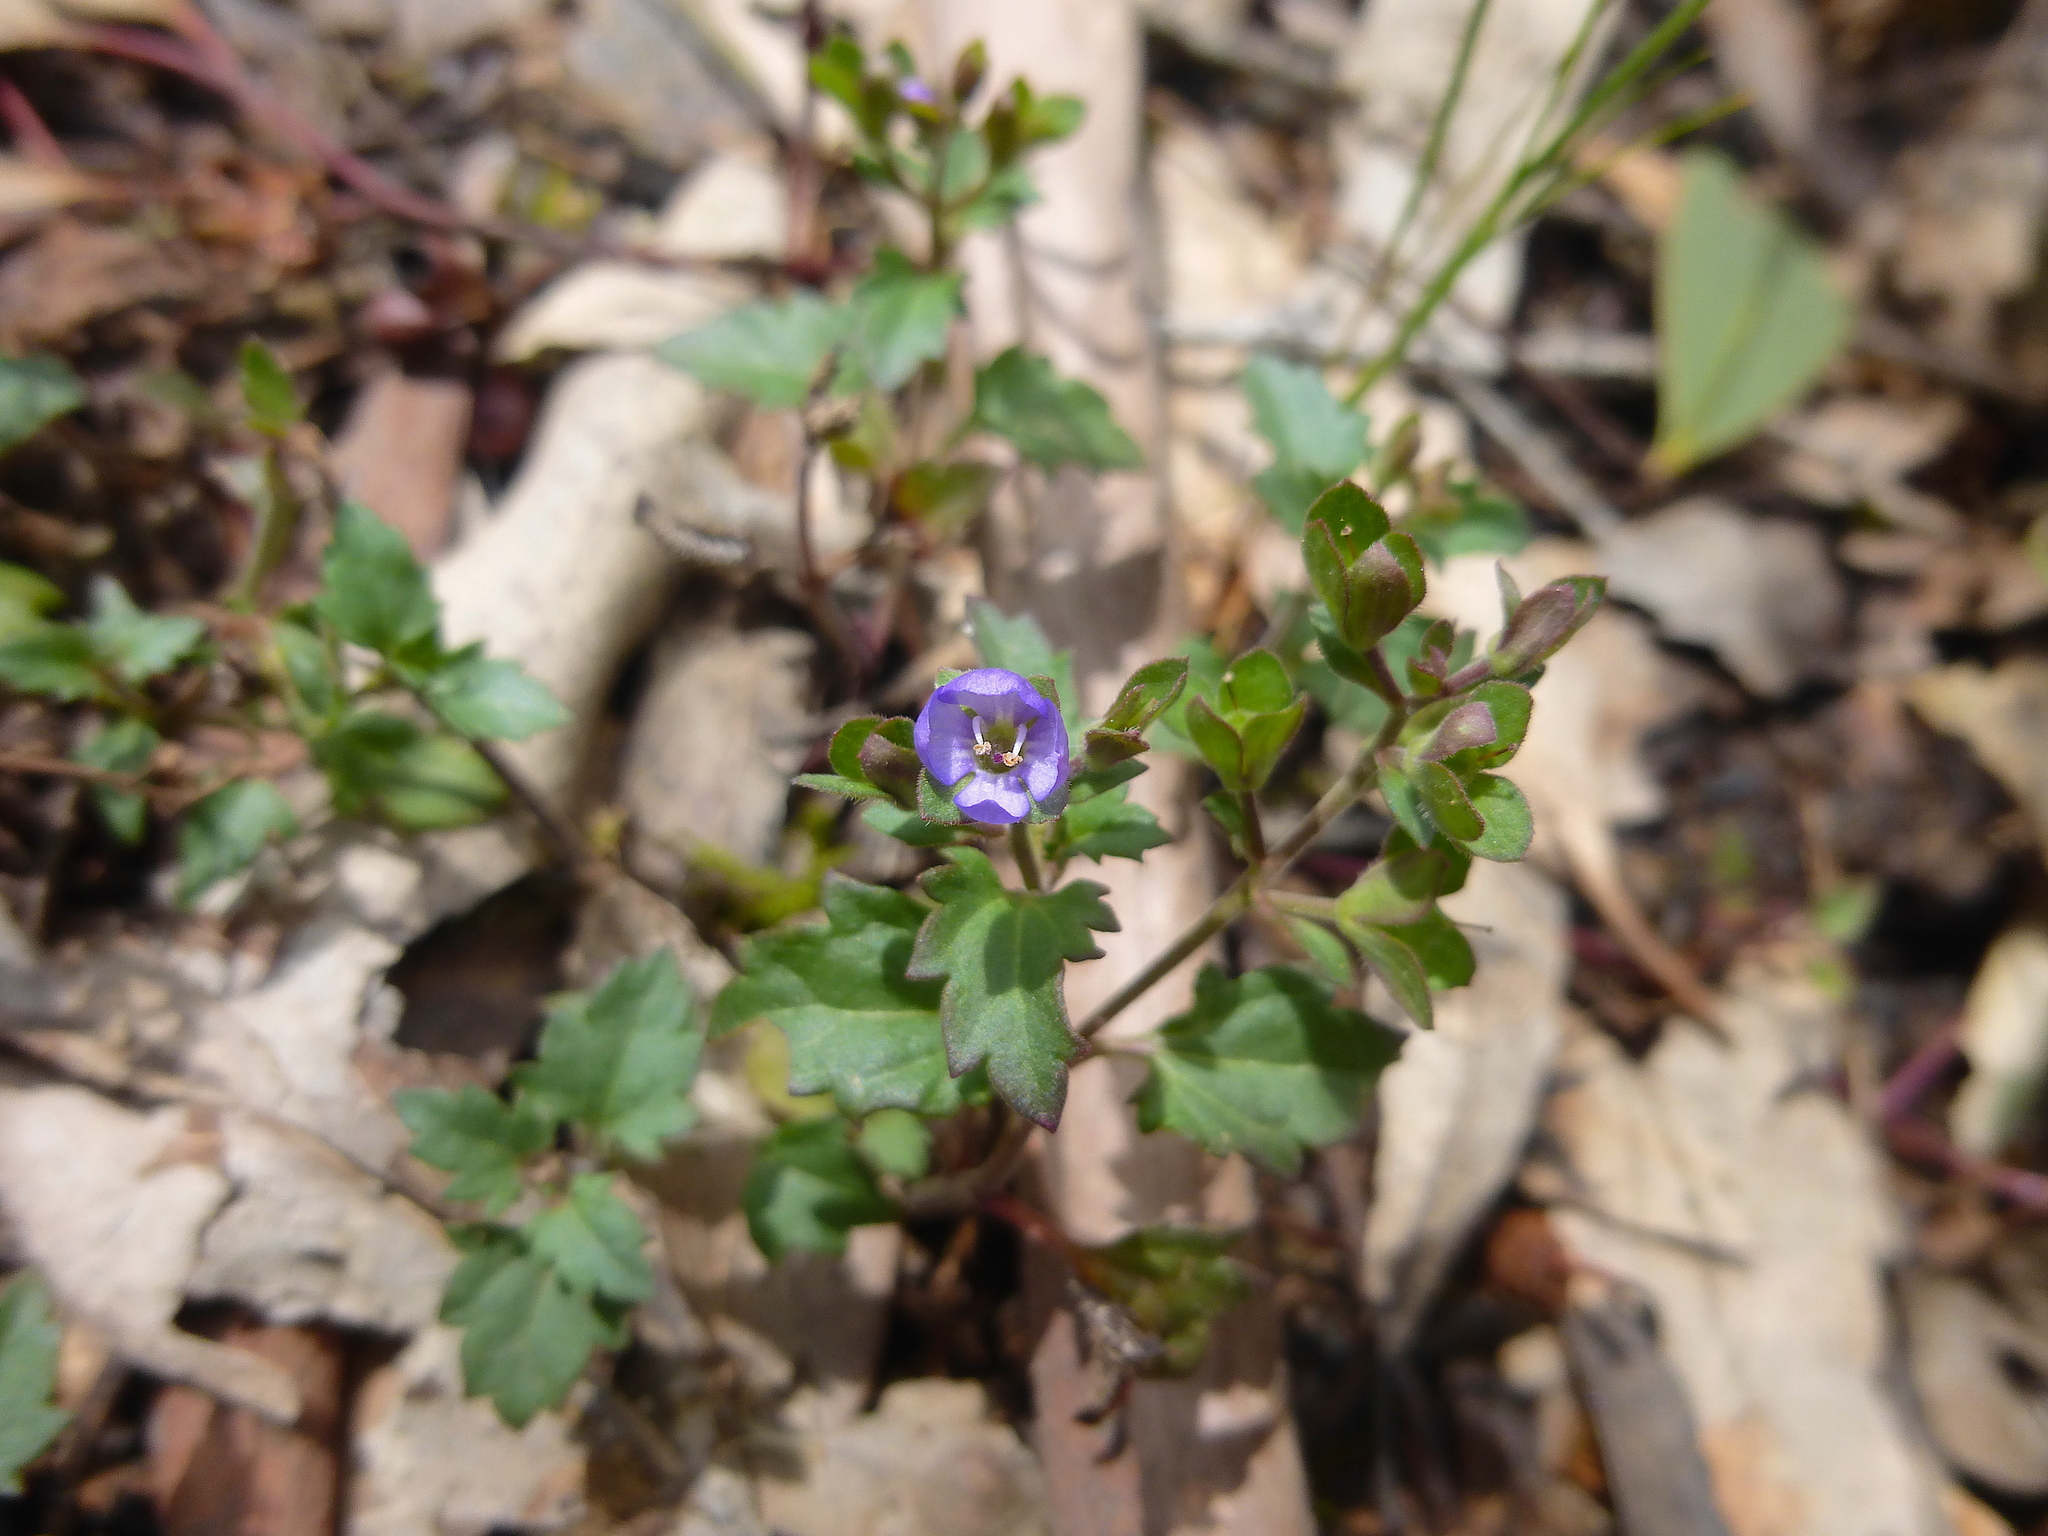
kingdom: Plantae
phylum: Tracheophyta
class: Magnoliopsida
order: Lamiales
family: Plantaginaceae
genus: Veronica
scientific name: Veronica plebeia
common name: Speedwell
